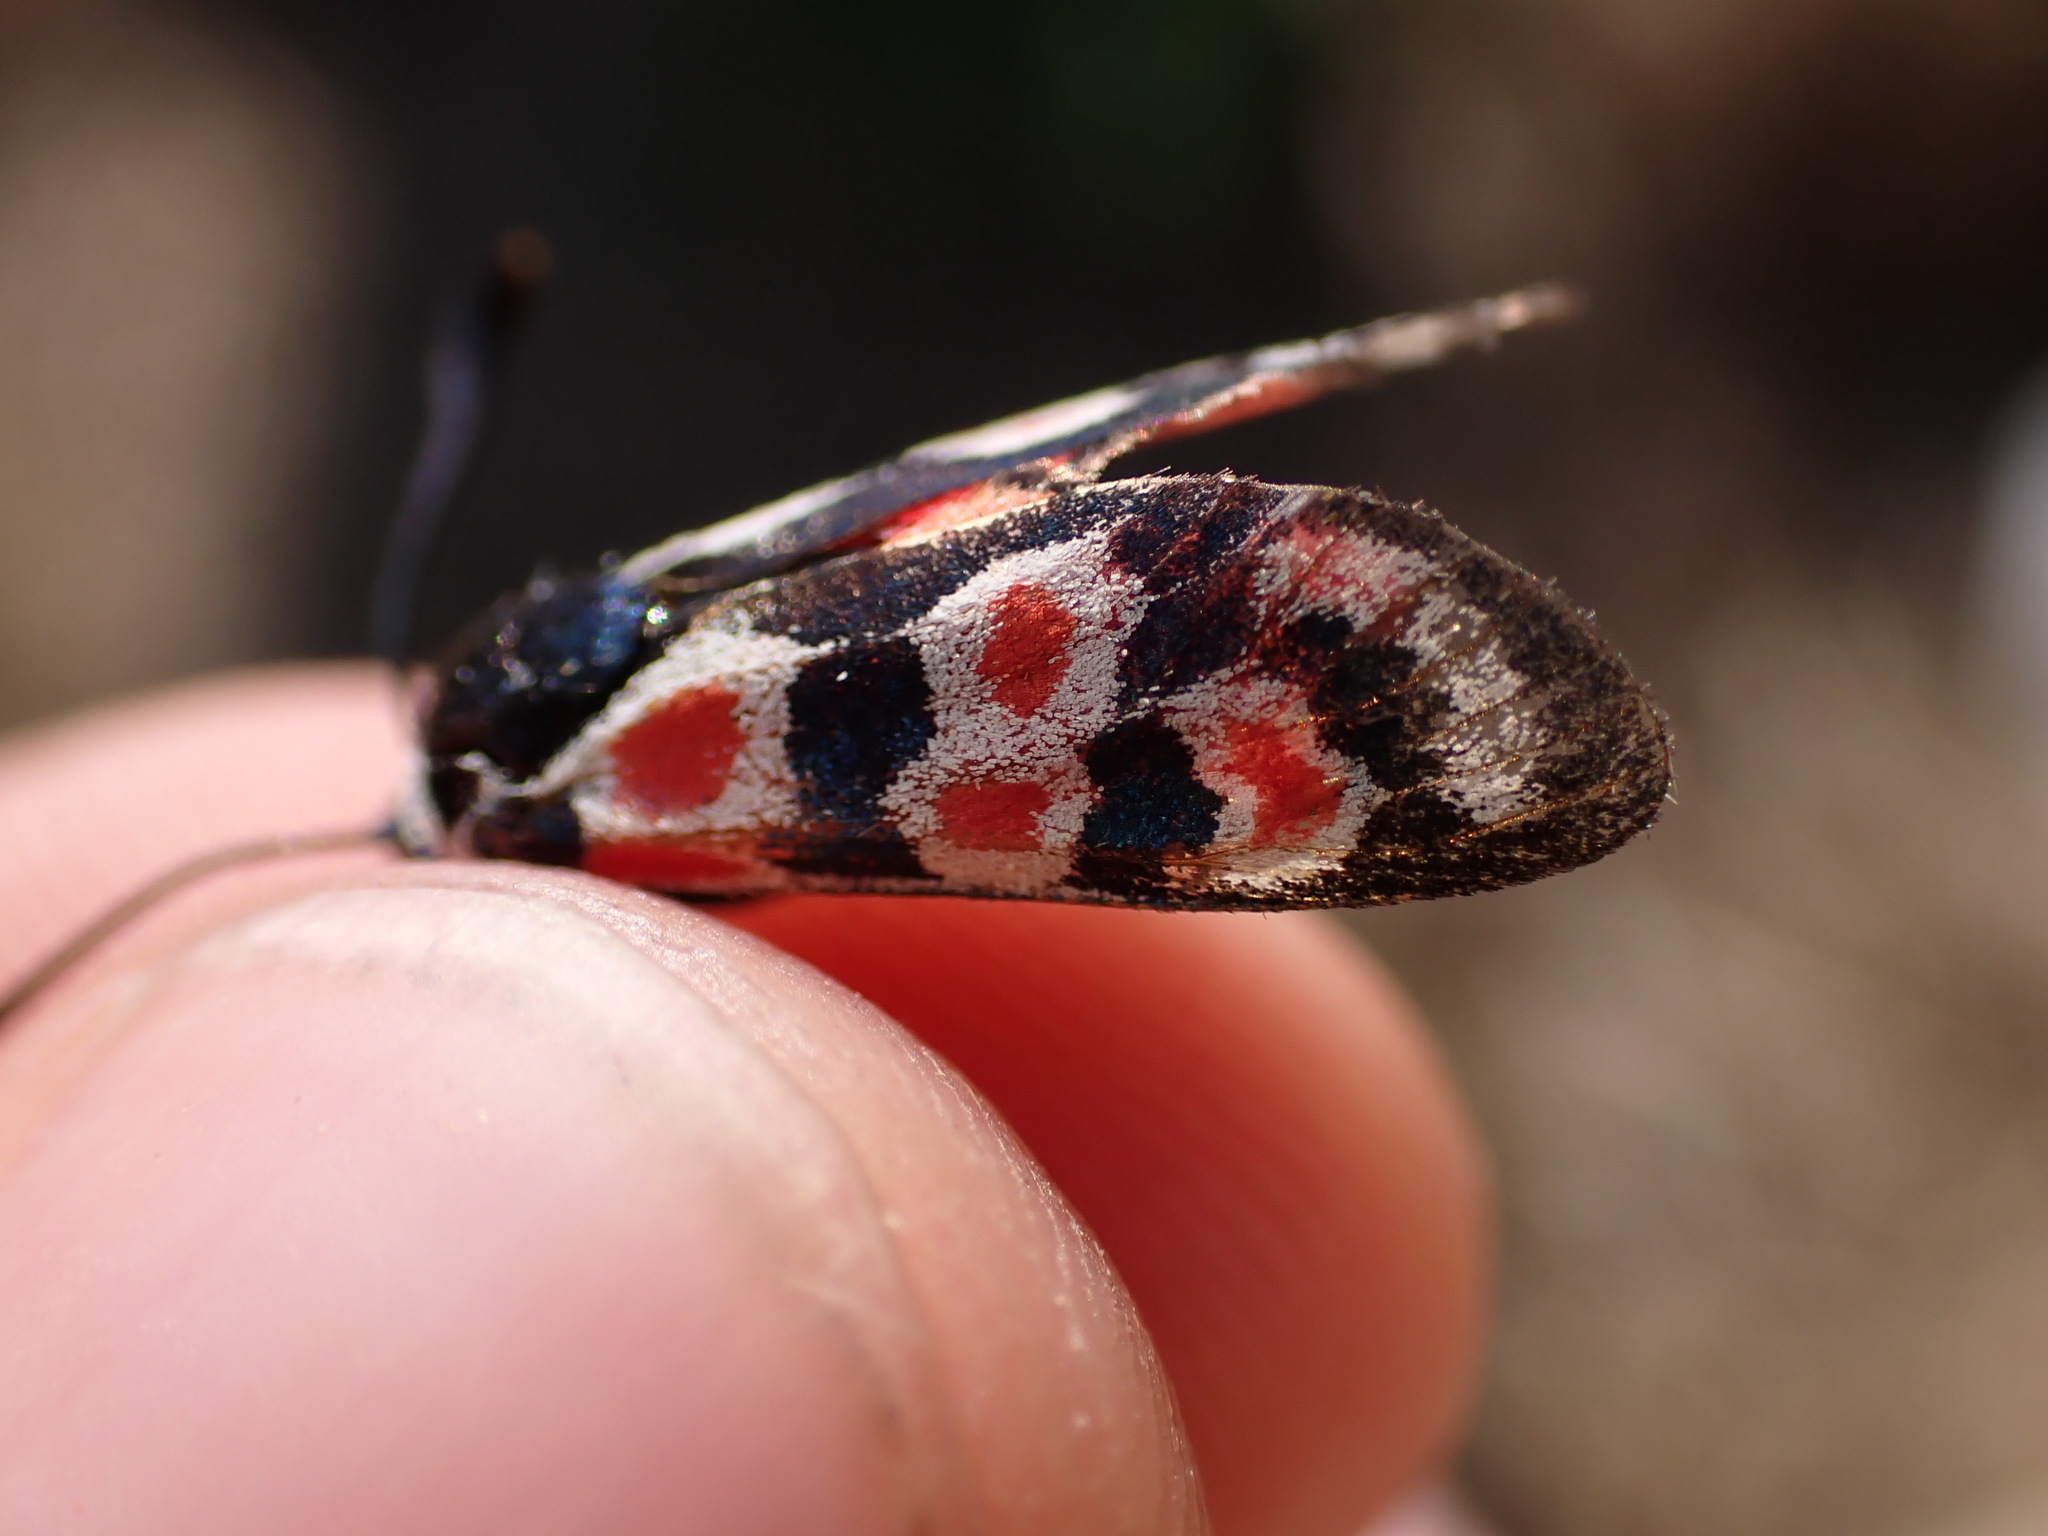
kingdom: Animalia
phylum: Arthropoda
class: Insecta
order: Lepidoptera
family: Zygaenidae
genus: Zygaena
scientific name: Zygaena occitanica
